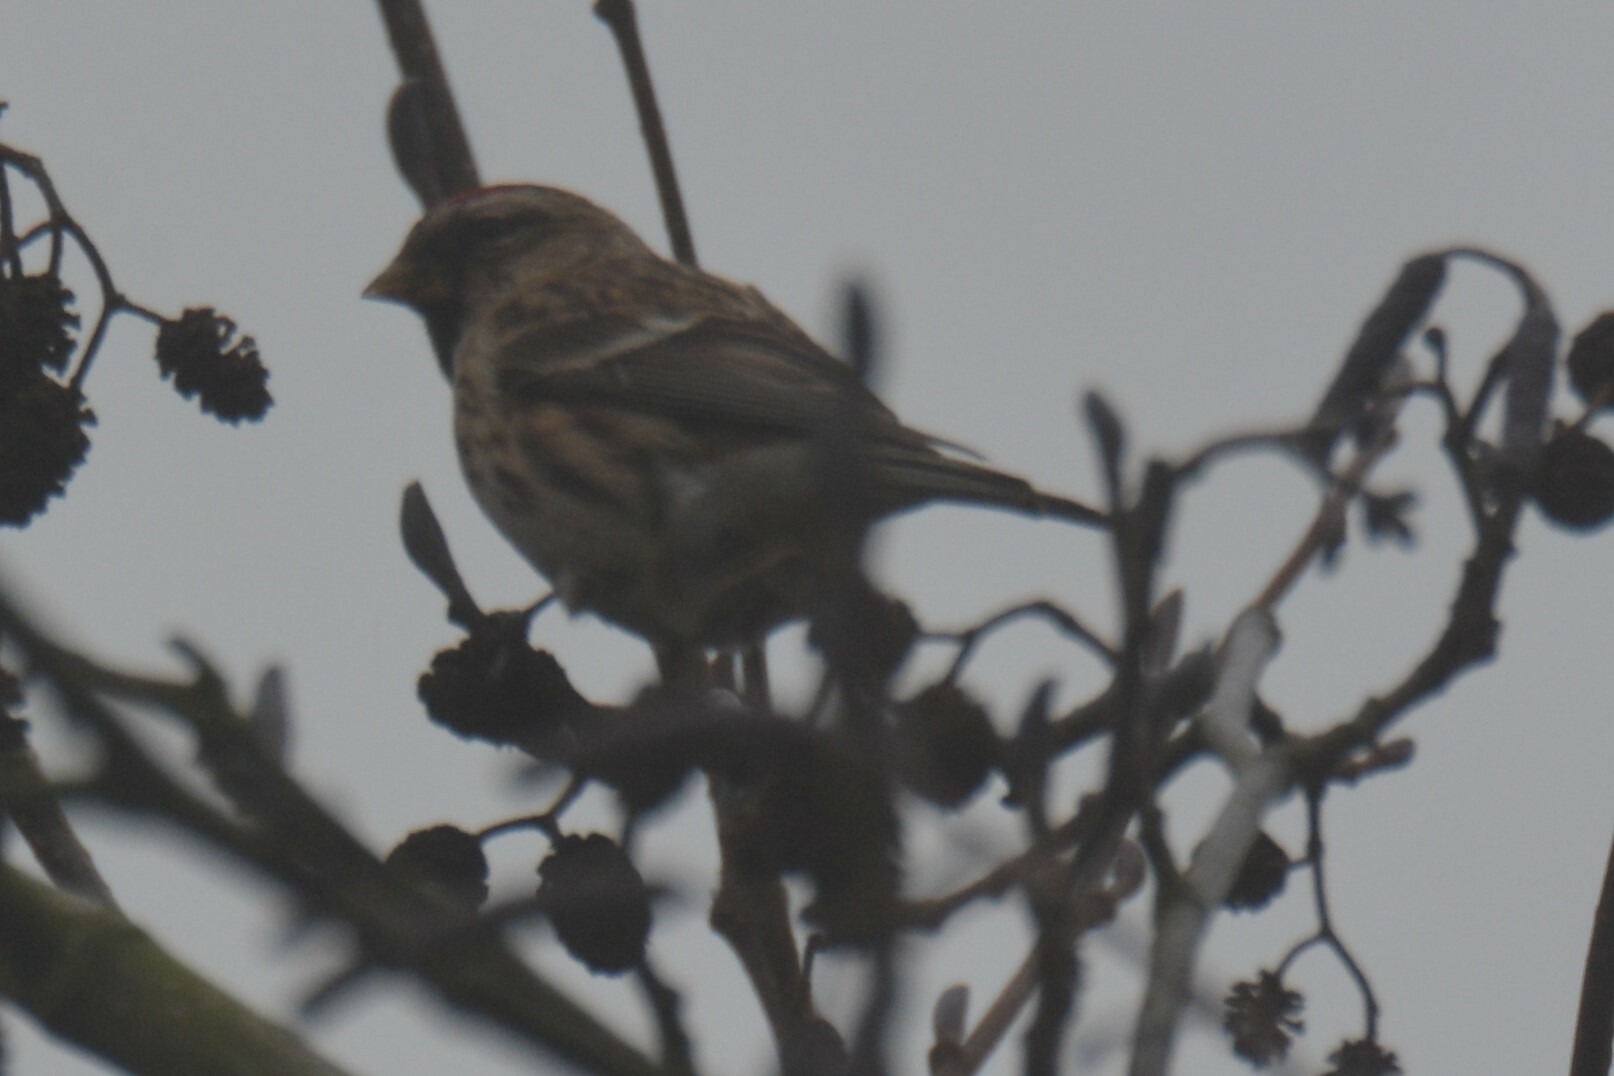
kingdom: Animalia
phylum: Chordata
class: Aves
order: Passeriformes
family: Fringillidae
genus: Acanthis
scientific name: Acanthis flammea
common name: Common redpoll
